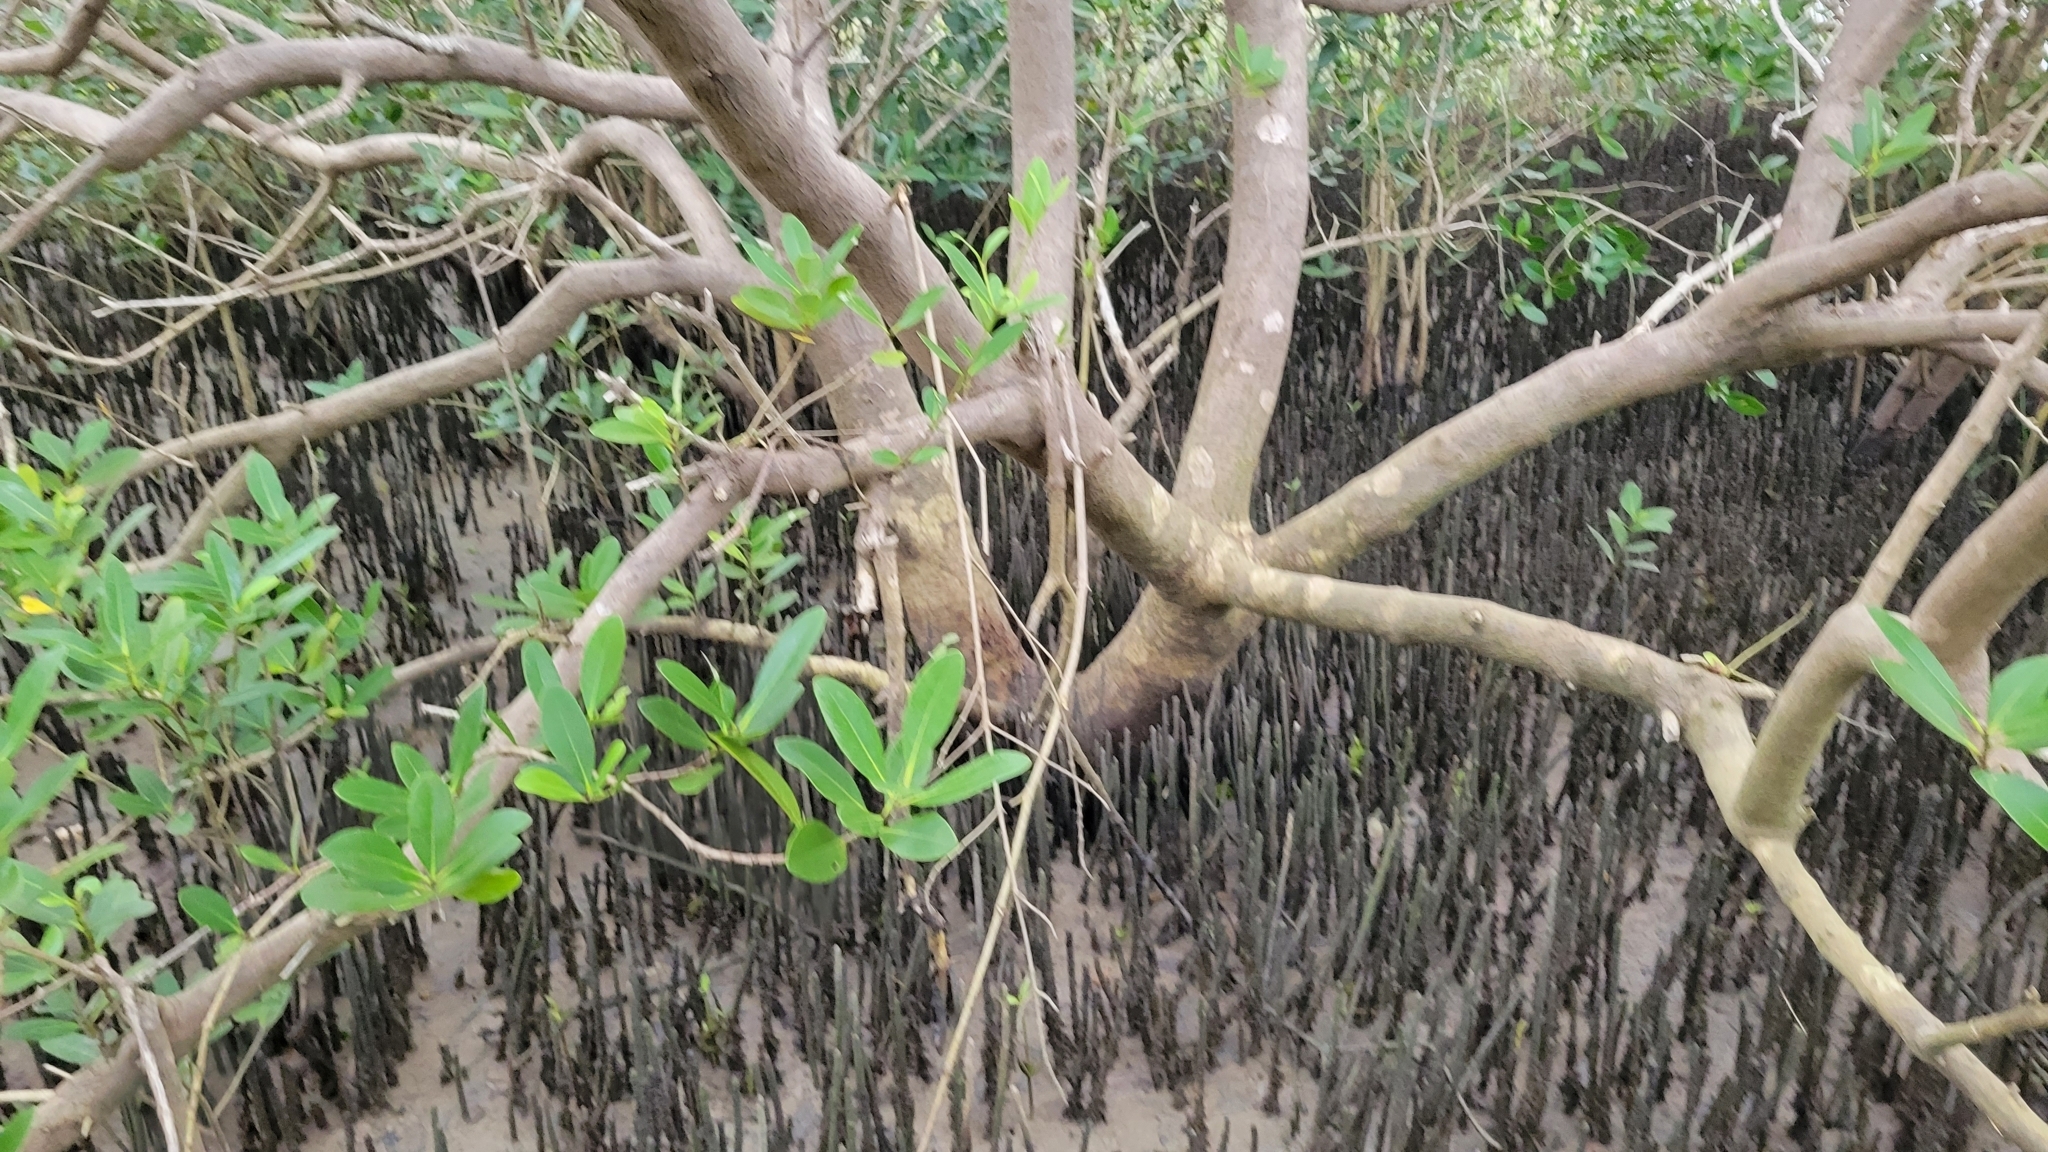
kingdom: Plantae
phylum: Tracheophyta
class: Magnoliopsida
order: Lamiales
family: Acanthaceae
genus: Avicennia
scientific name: Avicennia germinans
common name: Black mangrove
